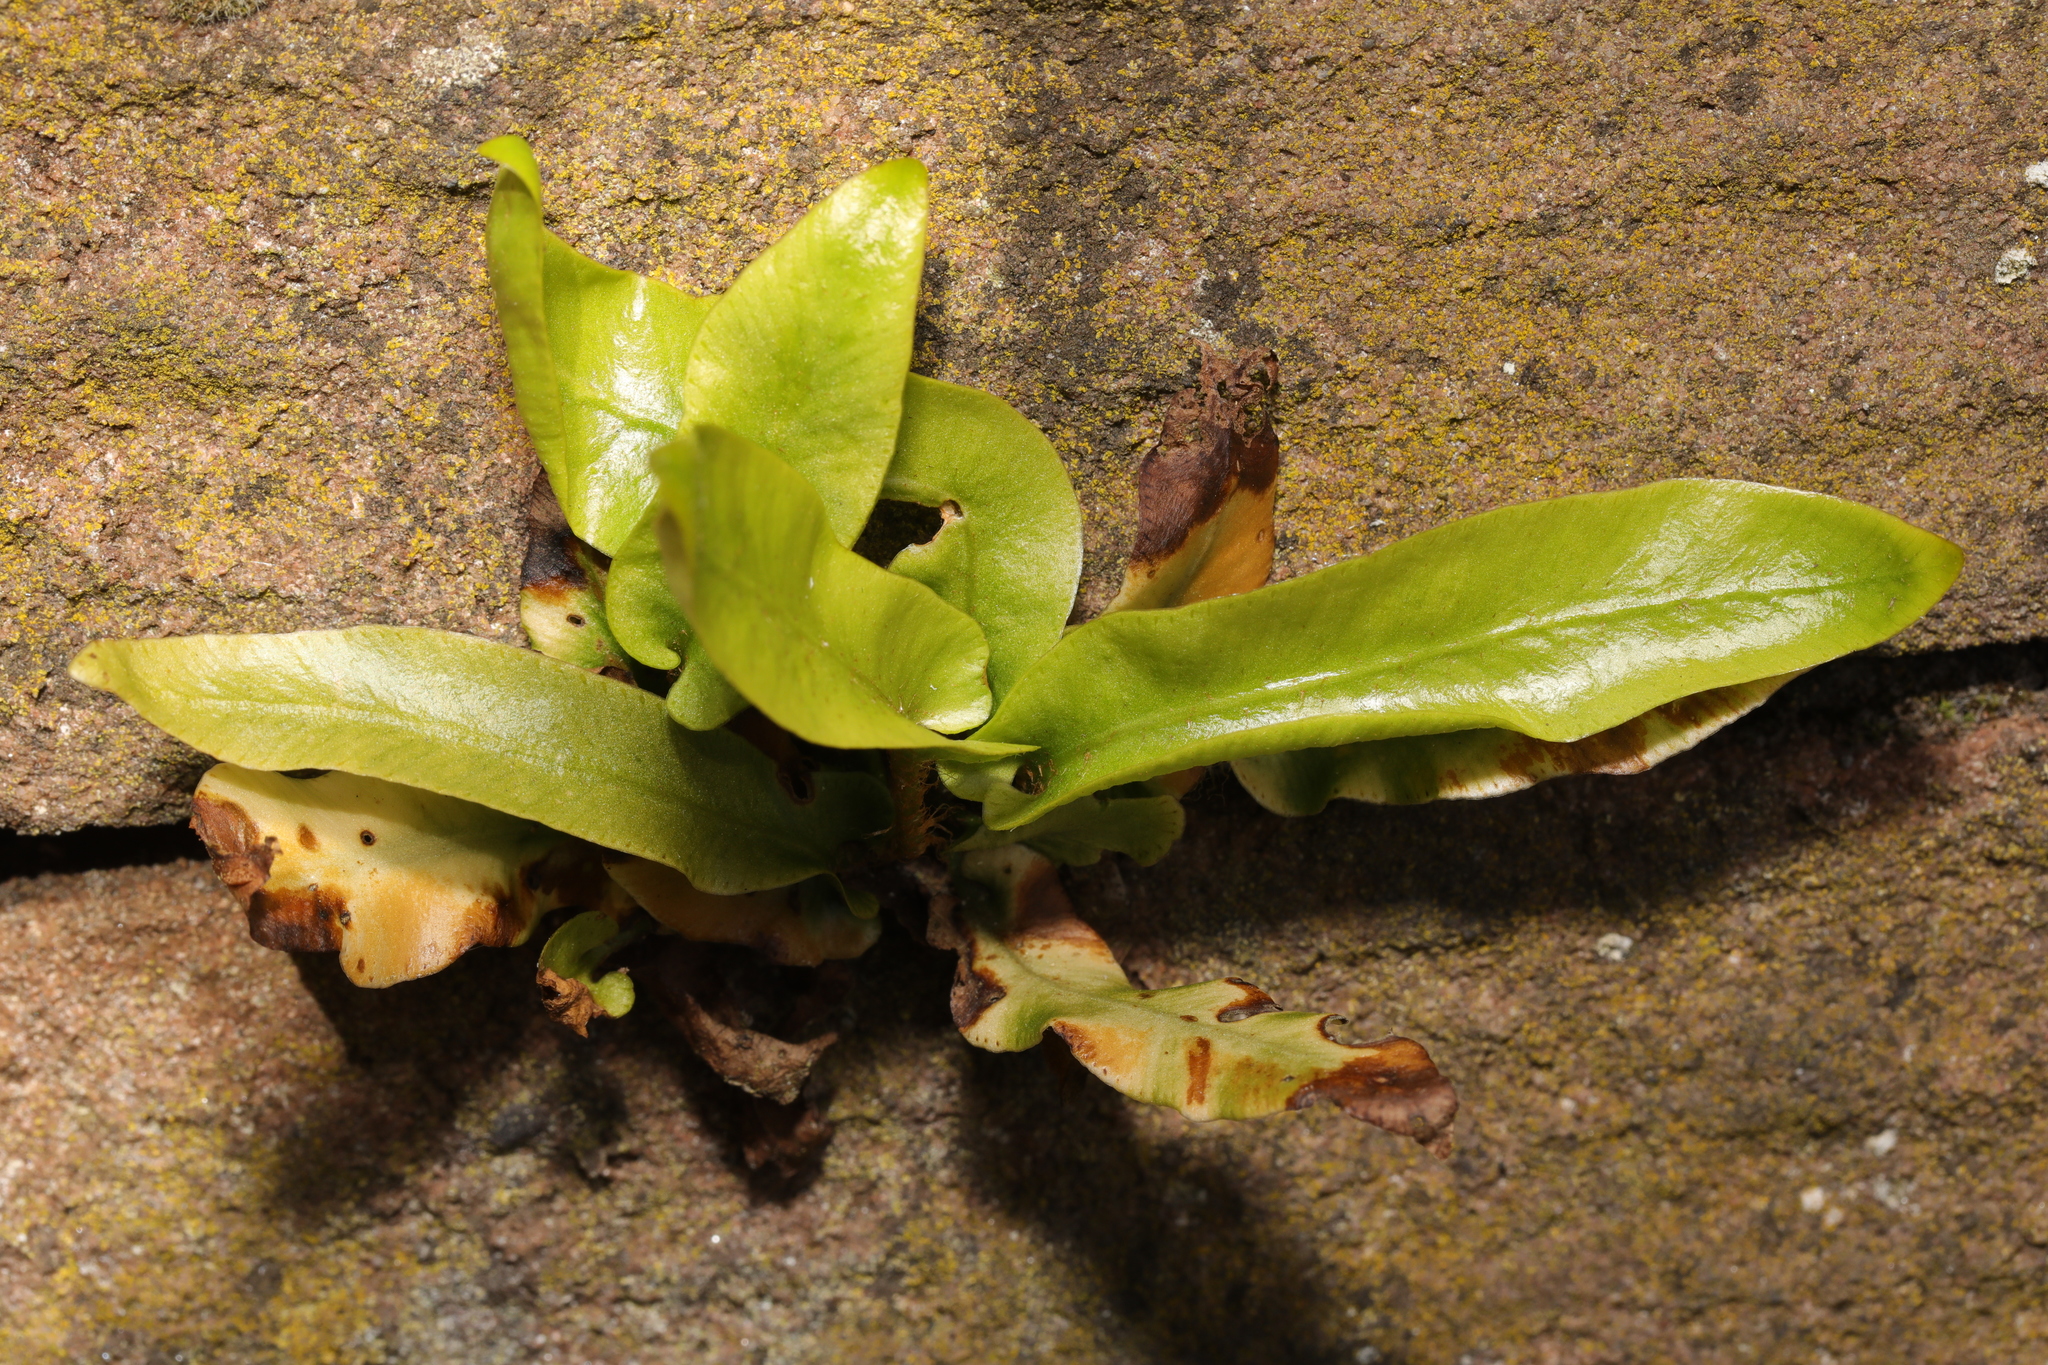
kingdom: Plantae
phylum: Tracheophyta
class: Polypodiopsida
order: Polypodiales
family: Aspleniaceae
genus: Asplenium
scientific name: Asplenium scolopendrium
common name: Hart's-tongue fern
